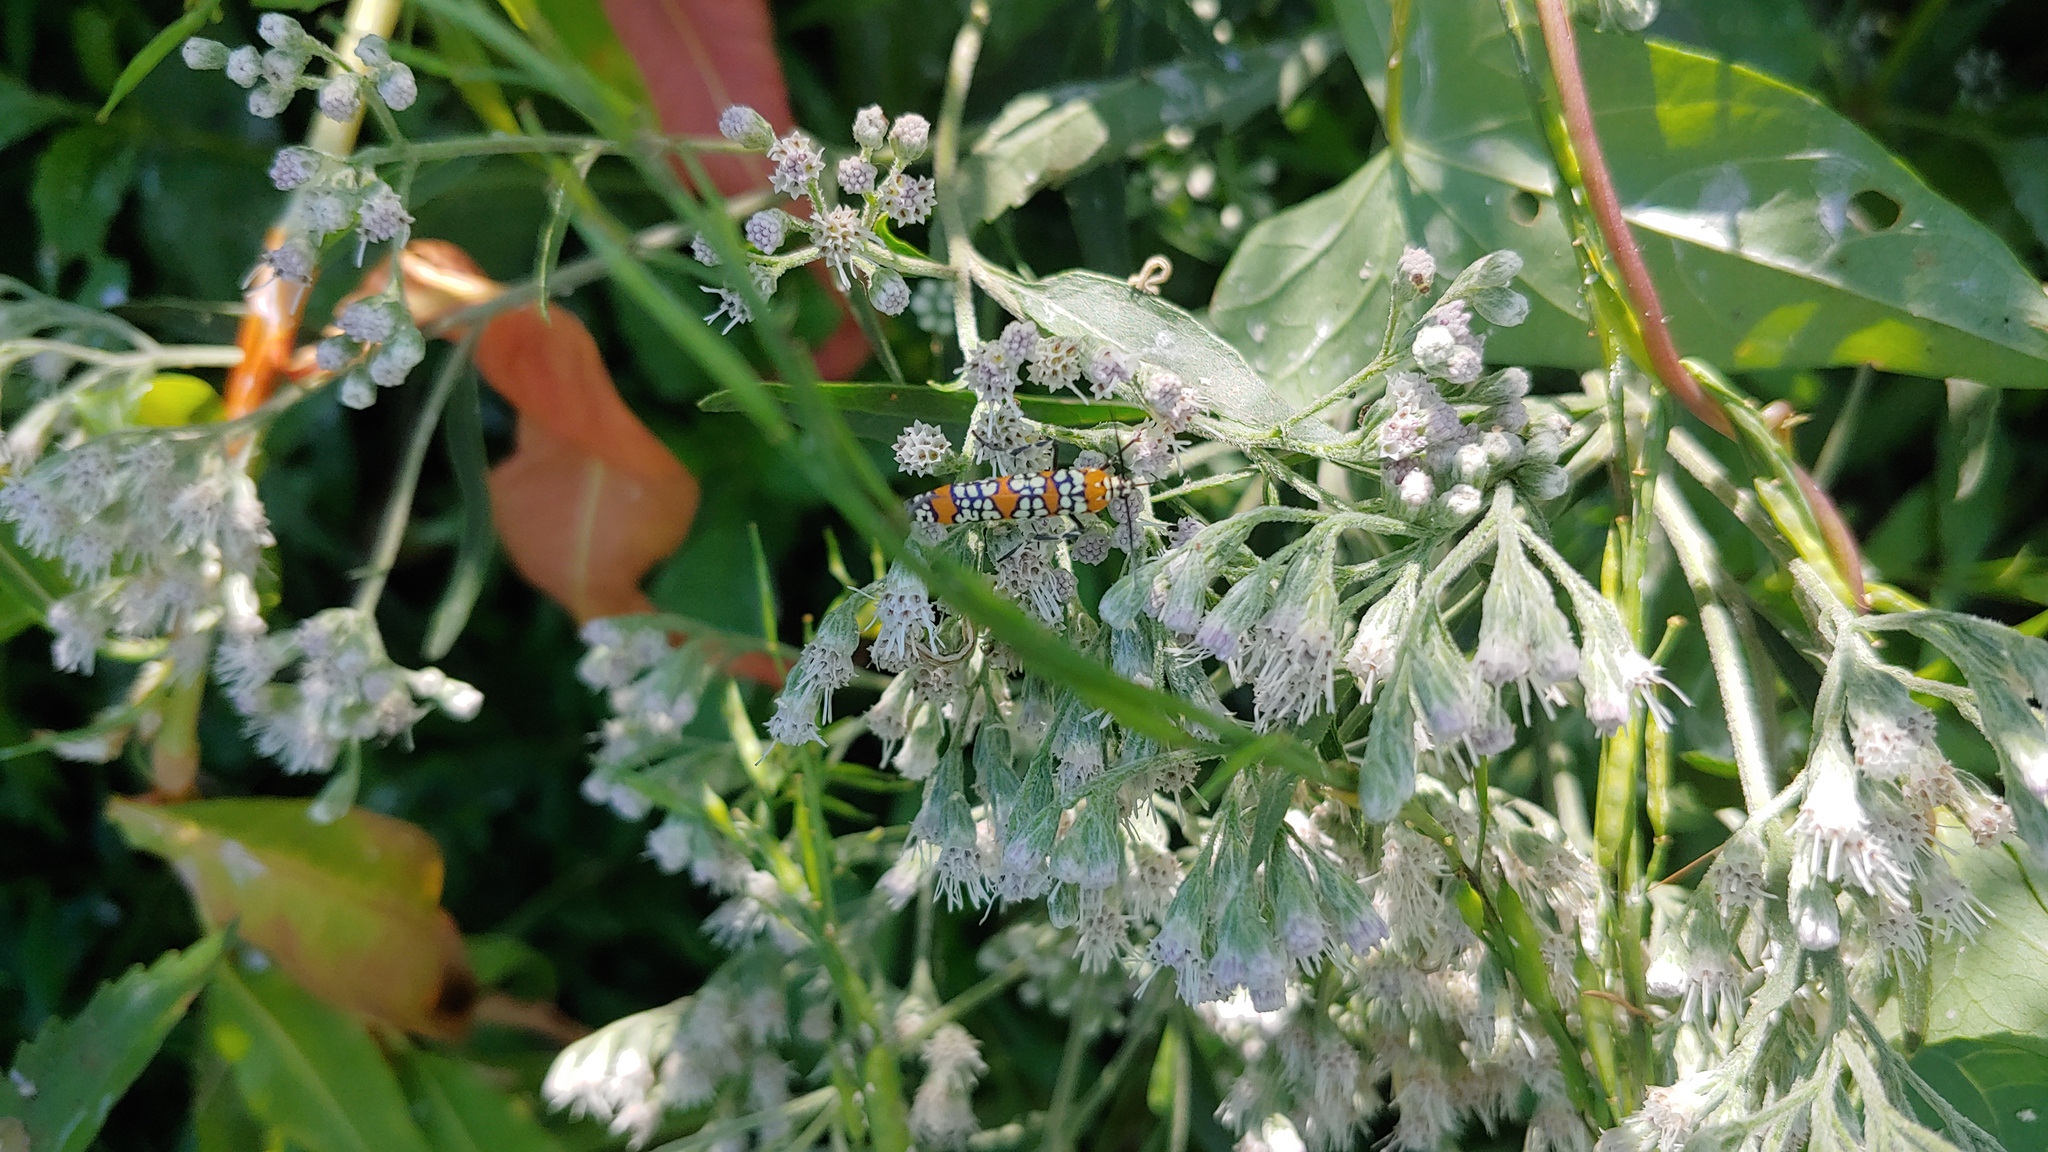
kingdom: Animalia
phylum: Arthropoda
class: Insecta
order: Lepidoptera
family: Attevidae
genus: Atteva
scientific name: Atteva punctella
